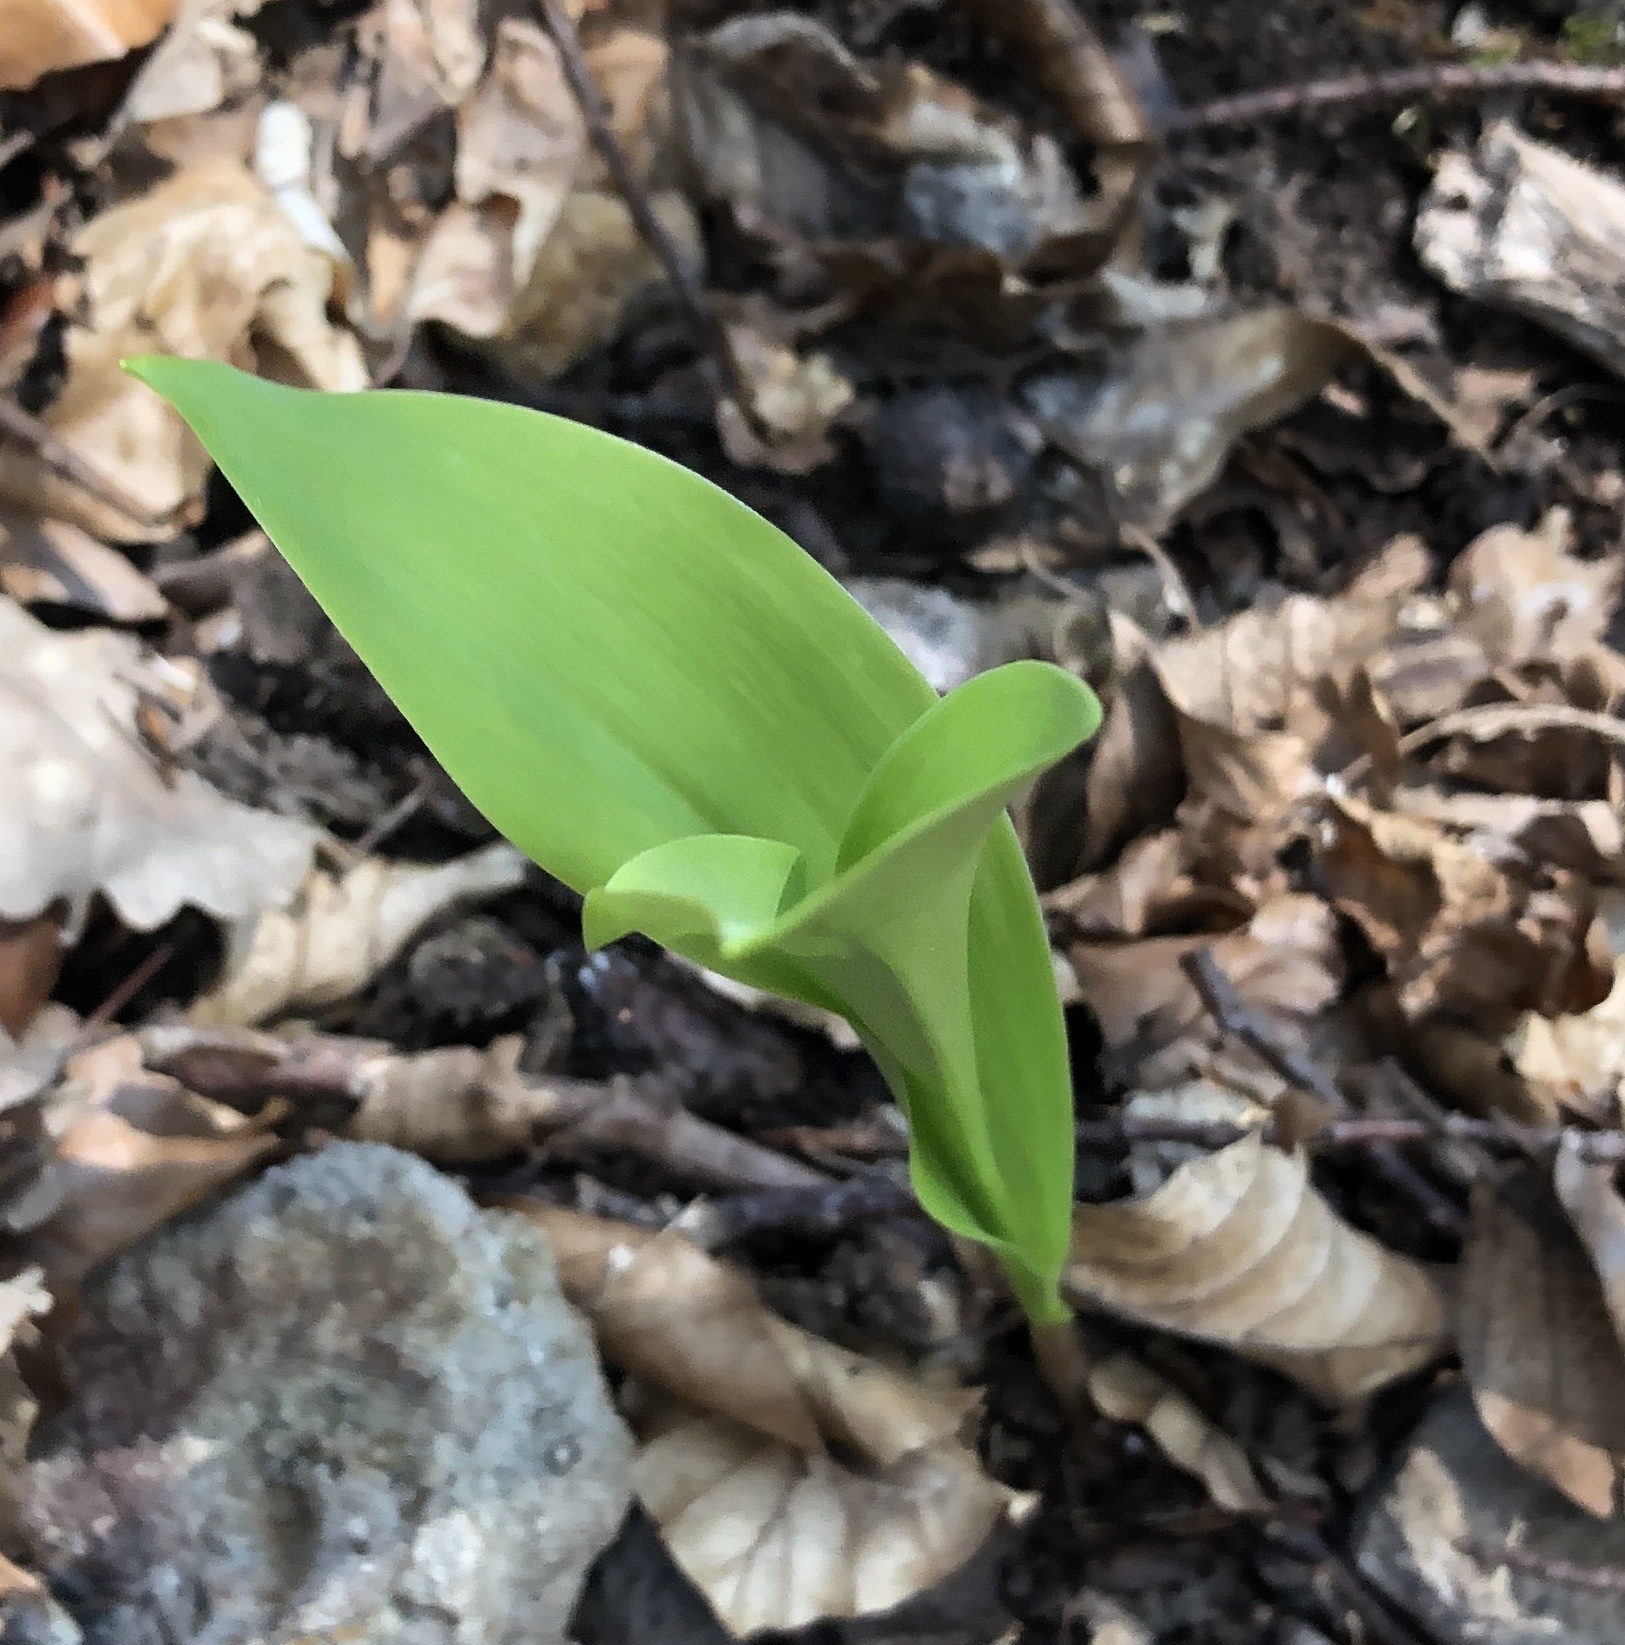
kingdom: Plantae
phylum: Tracheophyta
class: Liliopsida
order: Asparagales
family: Asparagaceae
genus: Convallaria
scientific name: Convallaria majalis
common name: Lily-of-the-valley
